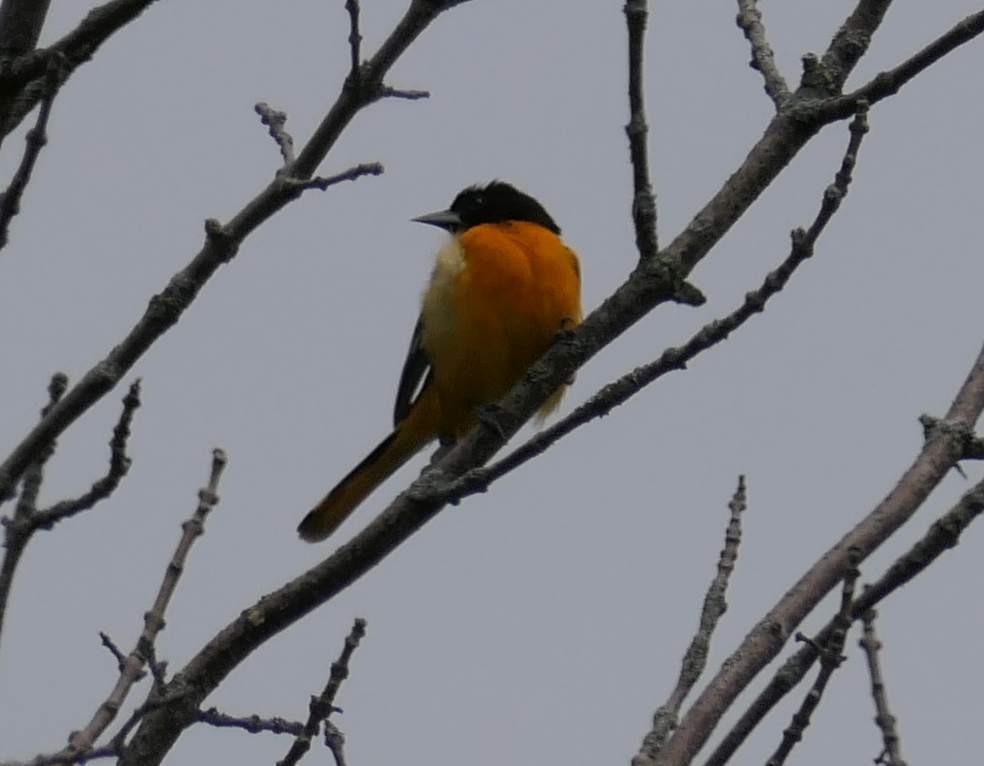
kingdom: Animalia
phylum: Chordata
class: Aves
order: Passeriformes
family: Icteridae
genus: Icterus
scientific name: Icterus galbula
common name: Baltimore oriole
